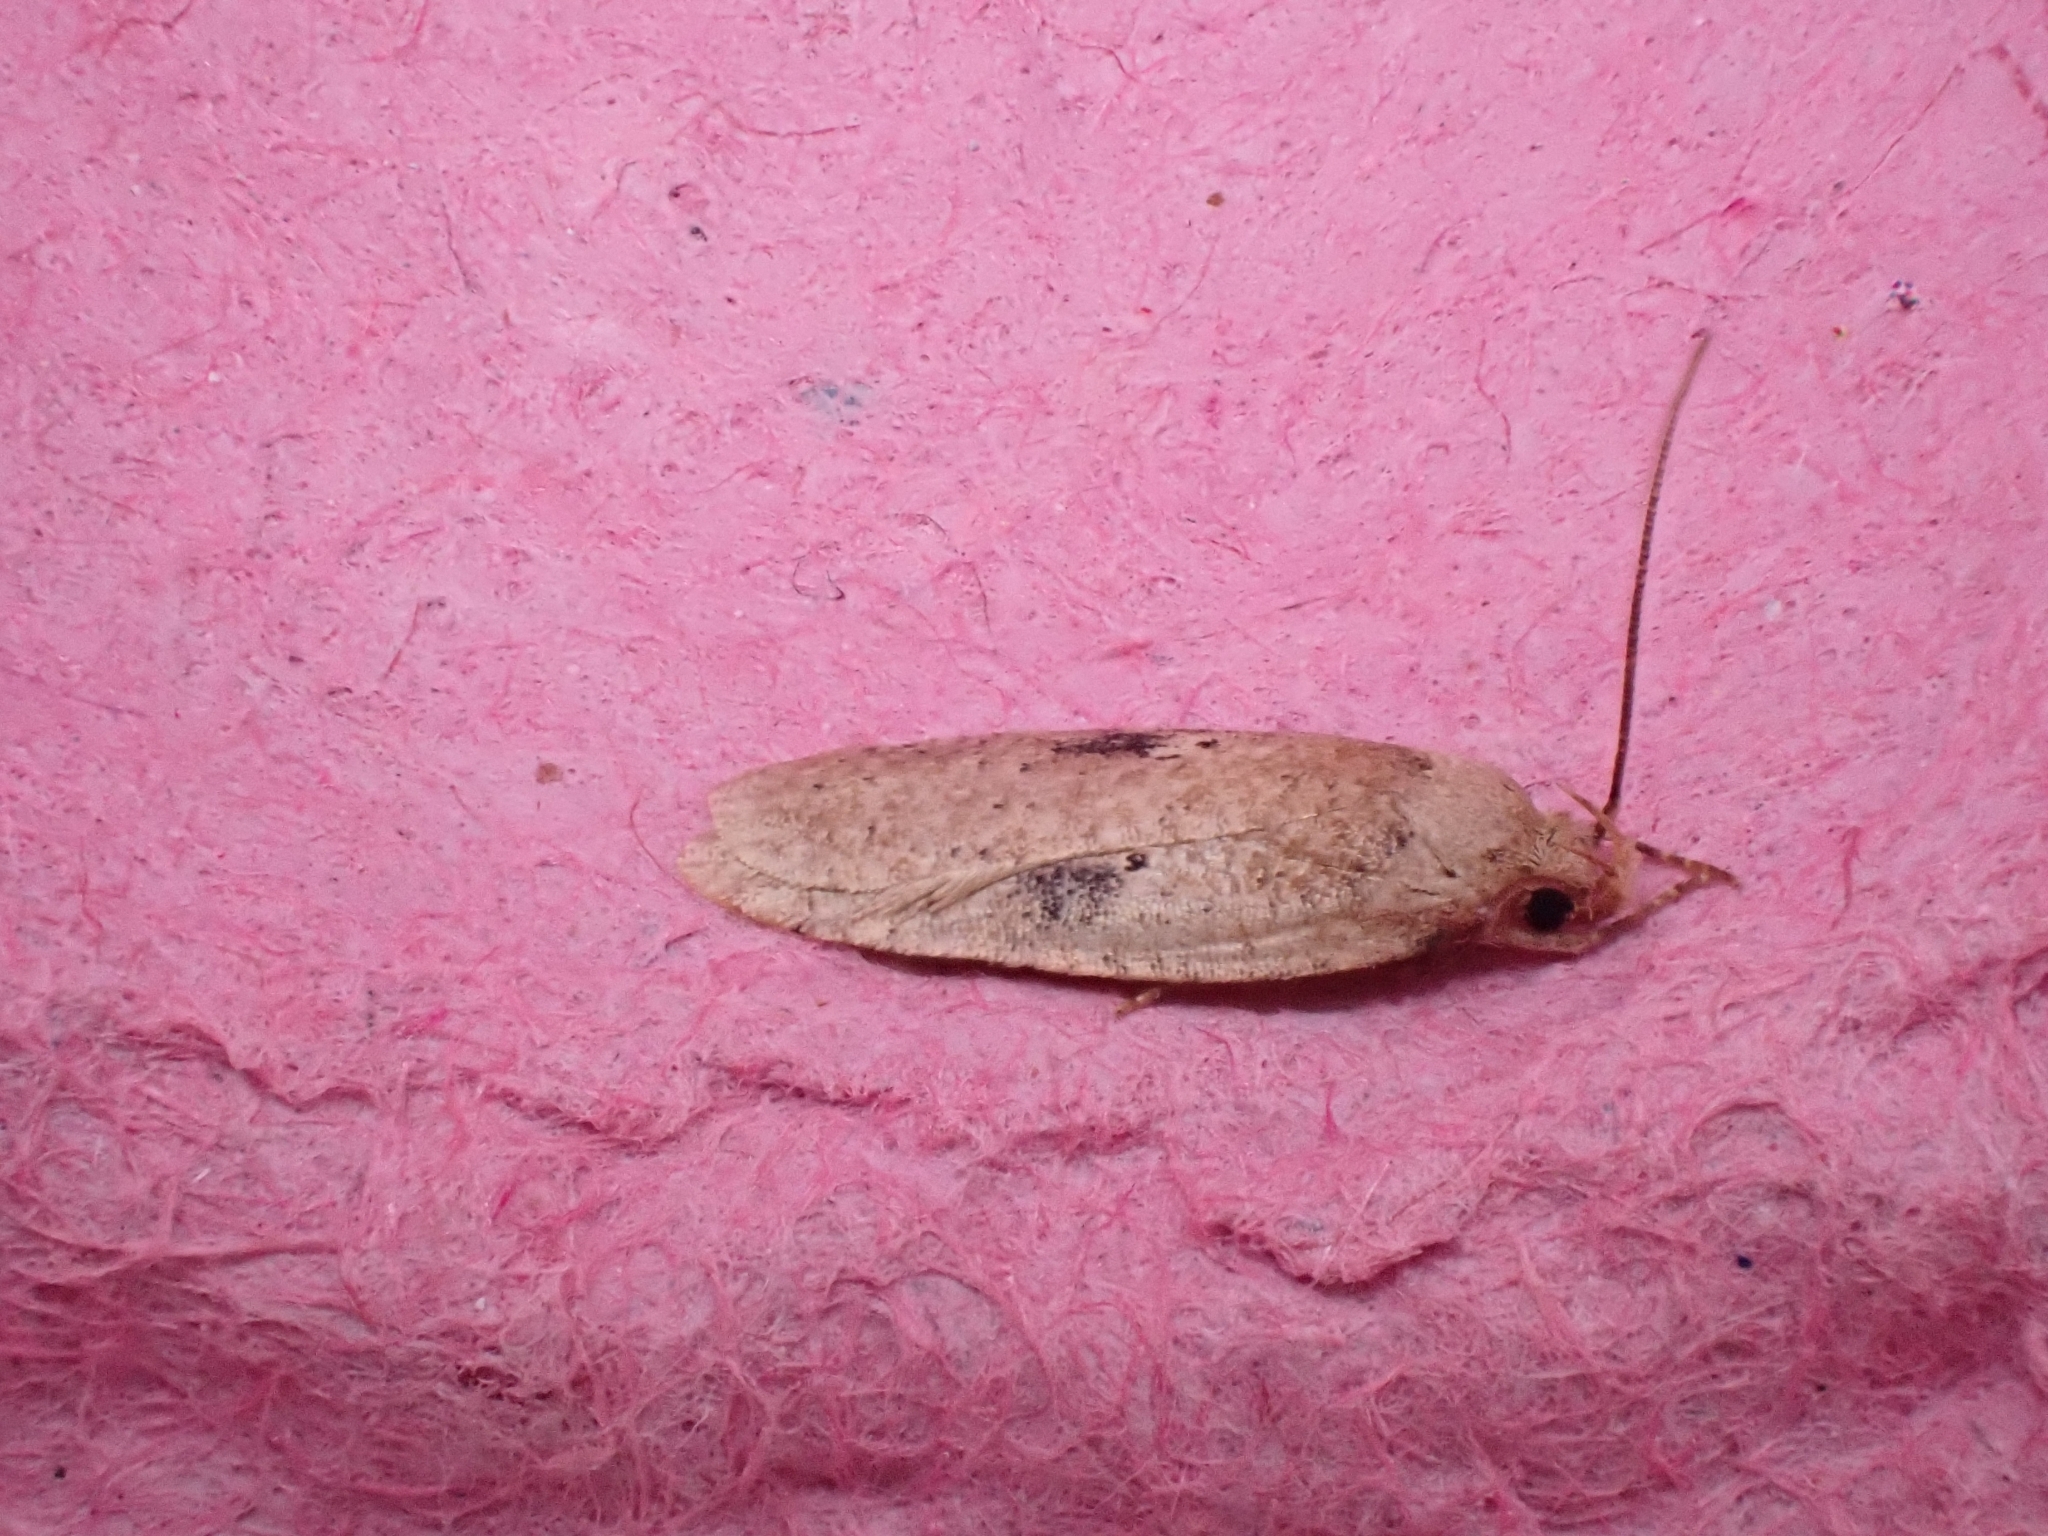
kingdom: Animalia
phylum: Arthropoda
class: Insecta
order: Lepidoptera
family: Depressariidae
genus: Agonopterix
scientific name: Agonopterix propinquella
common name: Black-spot flat-body
